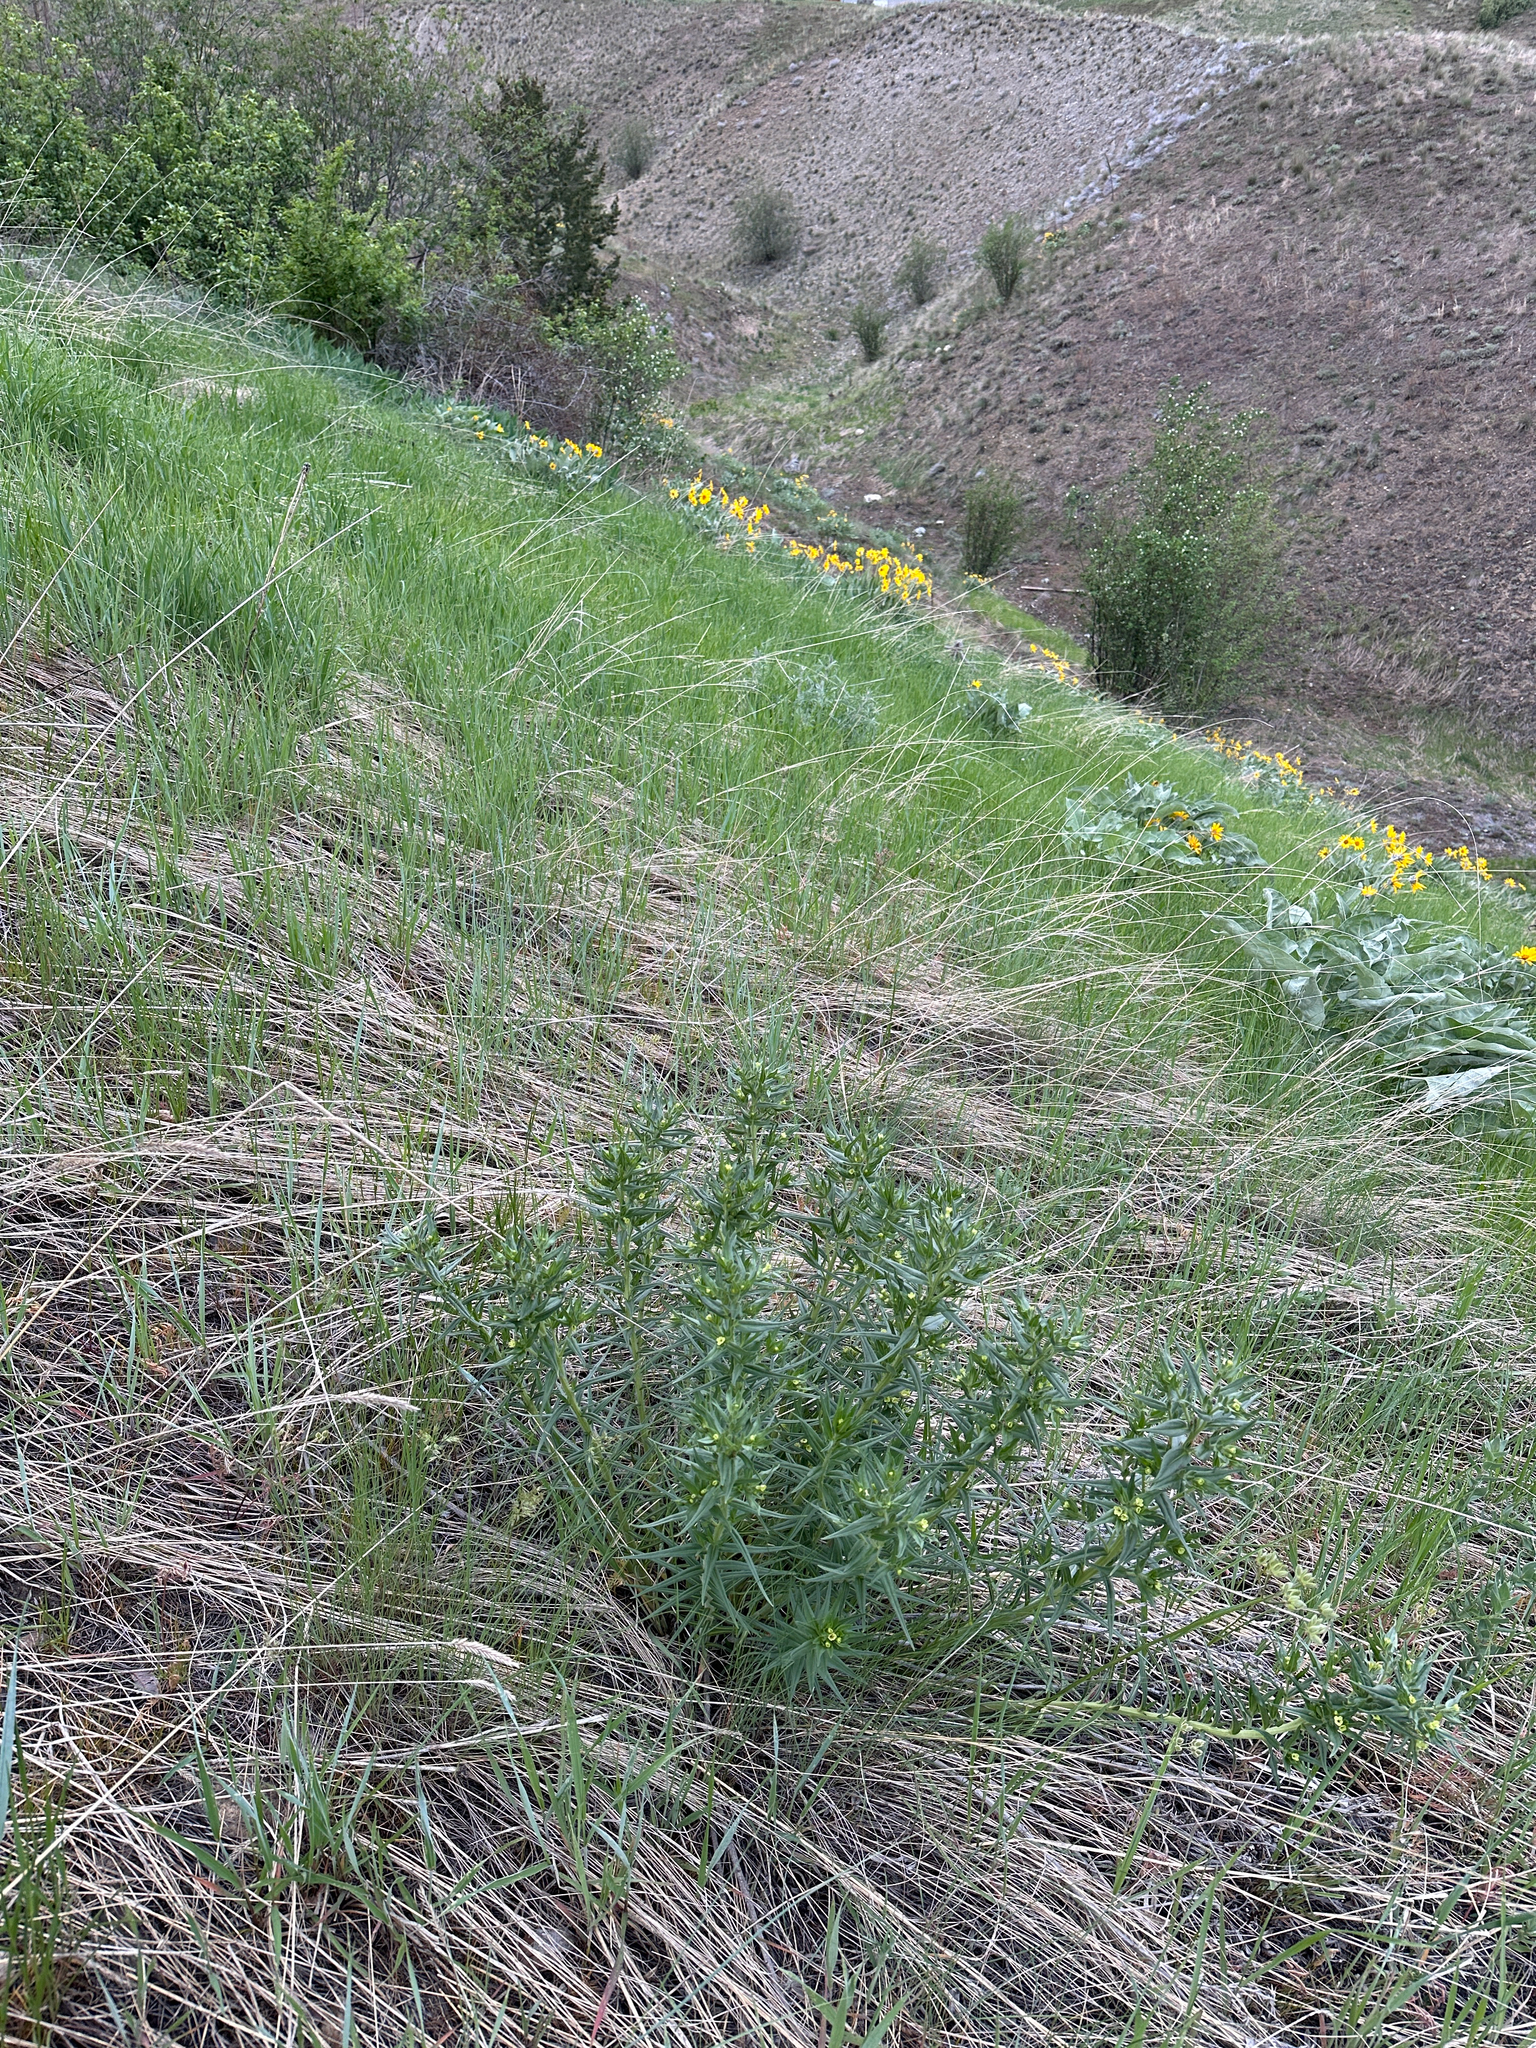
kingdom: Plantae
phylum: Tracheophyta
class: Magnoliopsida
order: Boraginales
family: Boraginaceae
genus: Lithospermum
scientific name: Lithospermum ruderale
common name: Western gromwell
